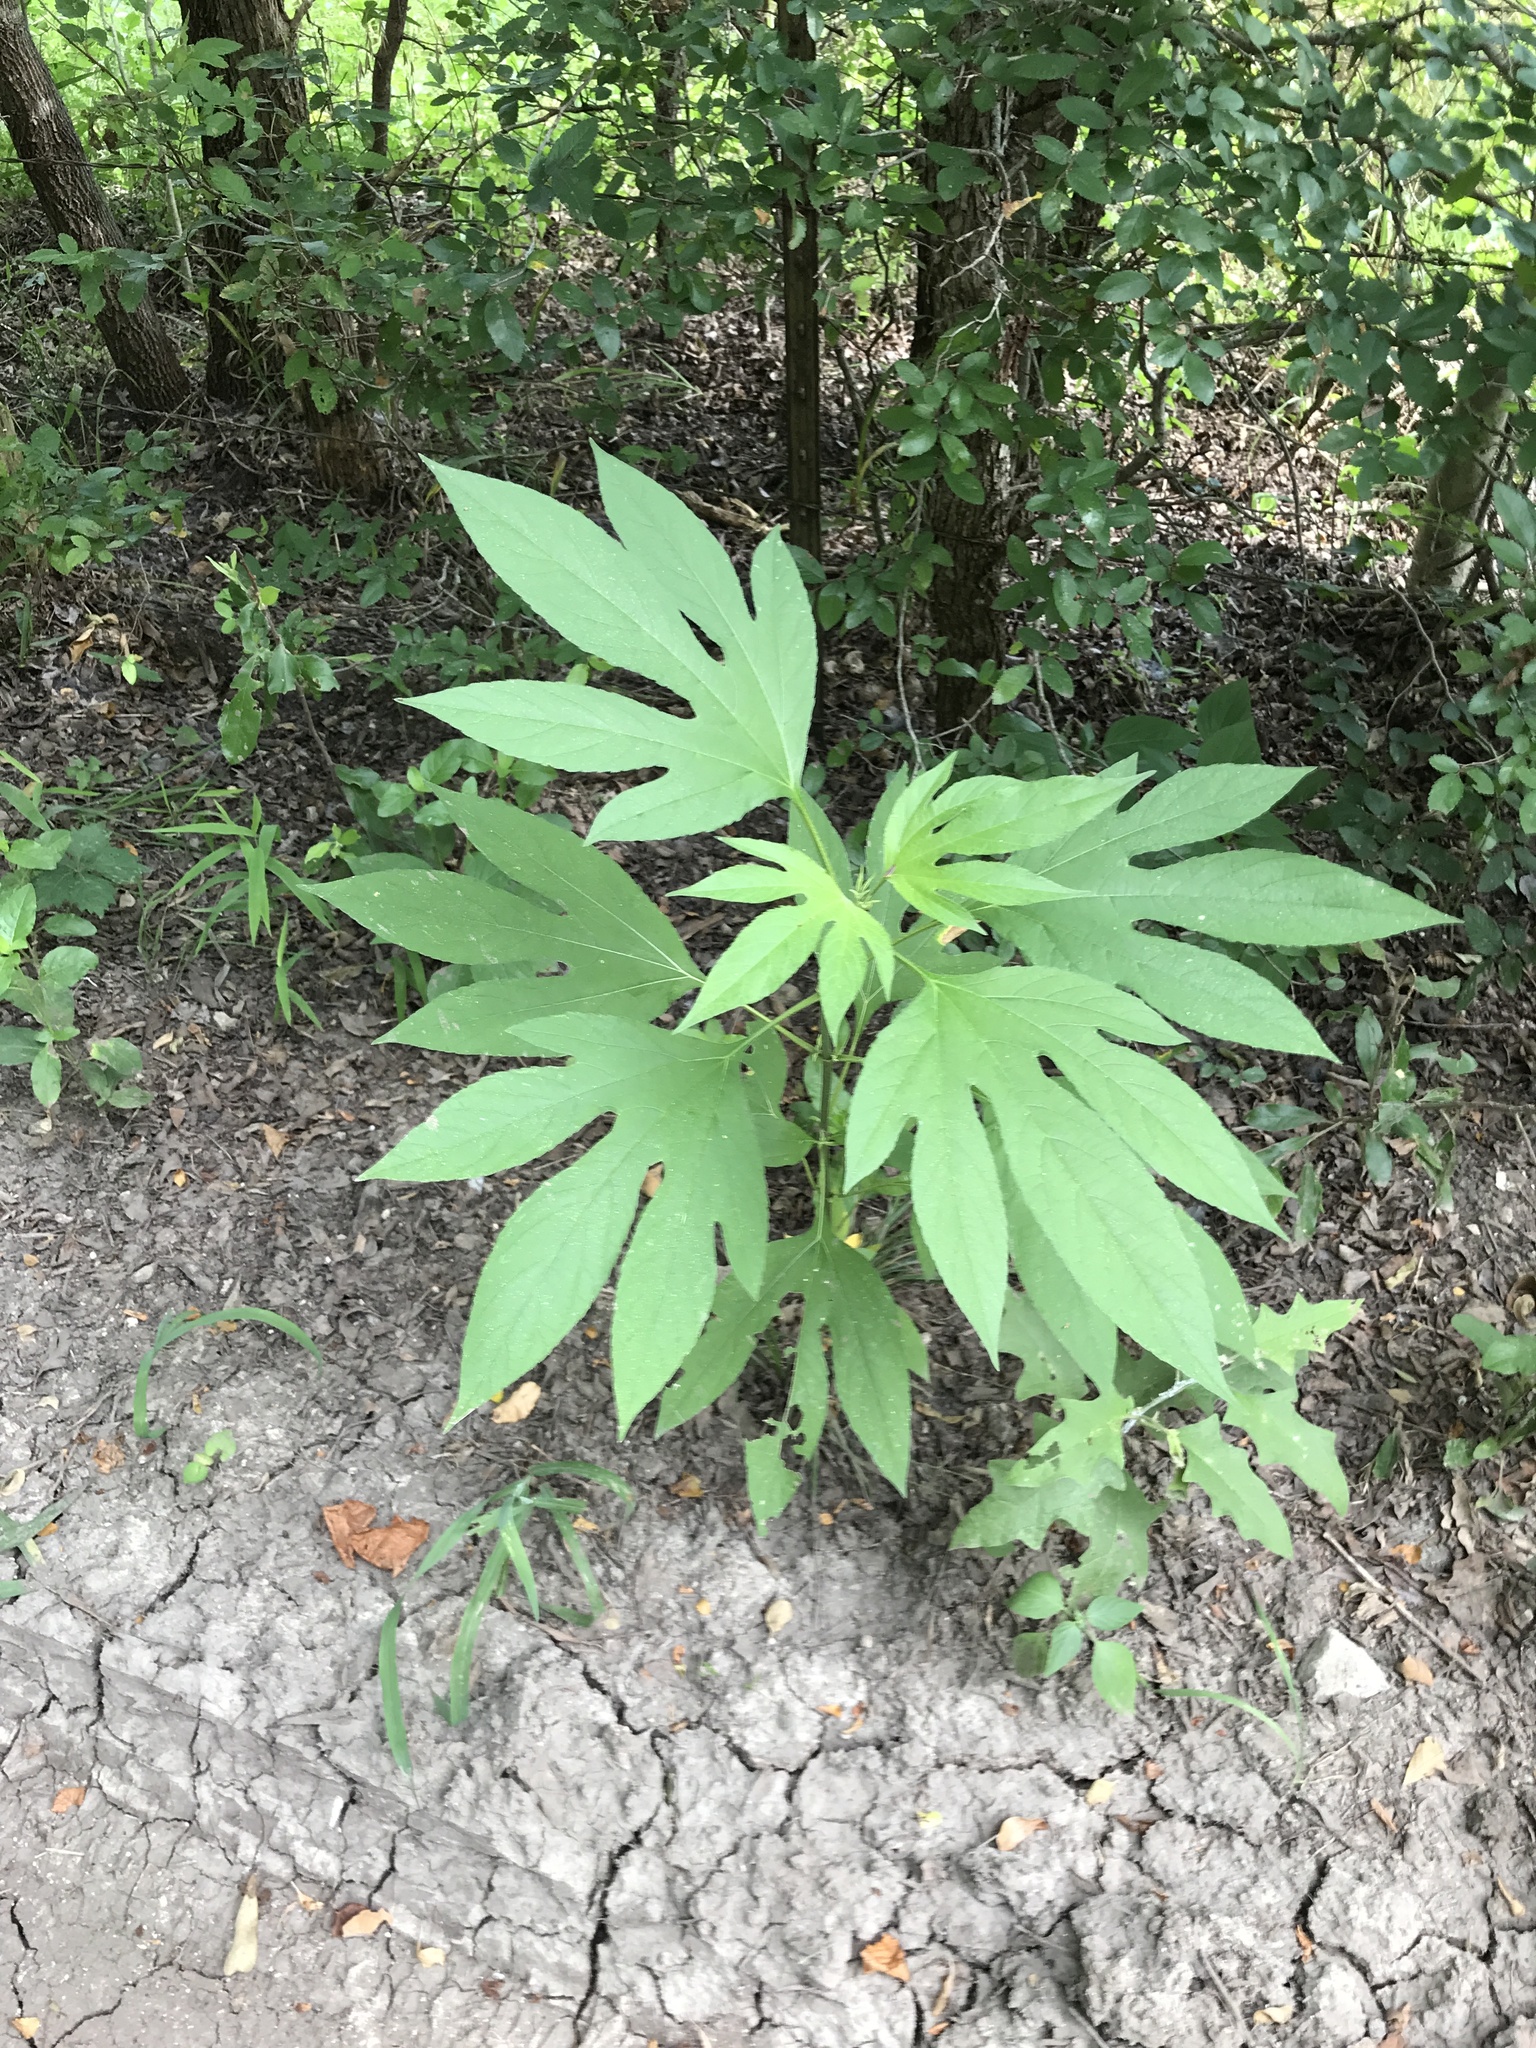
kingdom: Plantae
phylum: Tracheophyta
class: Magnoliopsida
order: Asterales
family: Asteraceae
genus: Ambrosia
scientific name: Ambrosia trifida
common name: Giant ragweed
